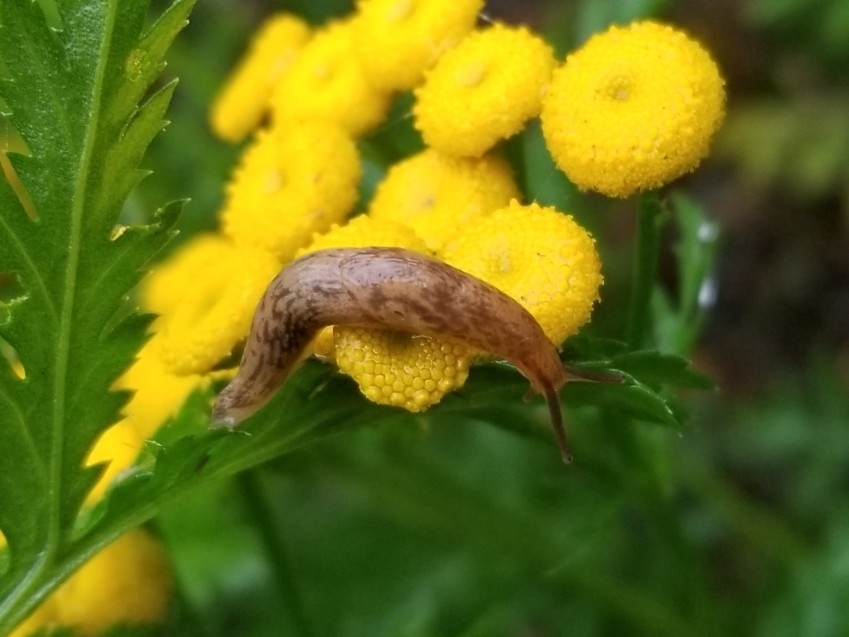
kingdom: Animalia
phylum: Mollusca
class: Gastropoda
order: Stylommatophora
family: Agriolimacidae
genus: Deroceras
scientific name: Deroceras reticulatum
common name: Gray field slug
